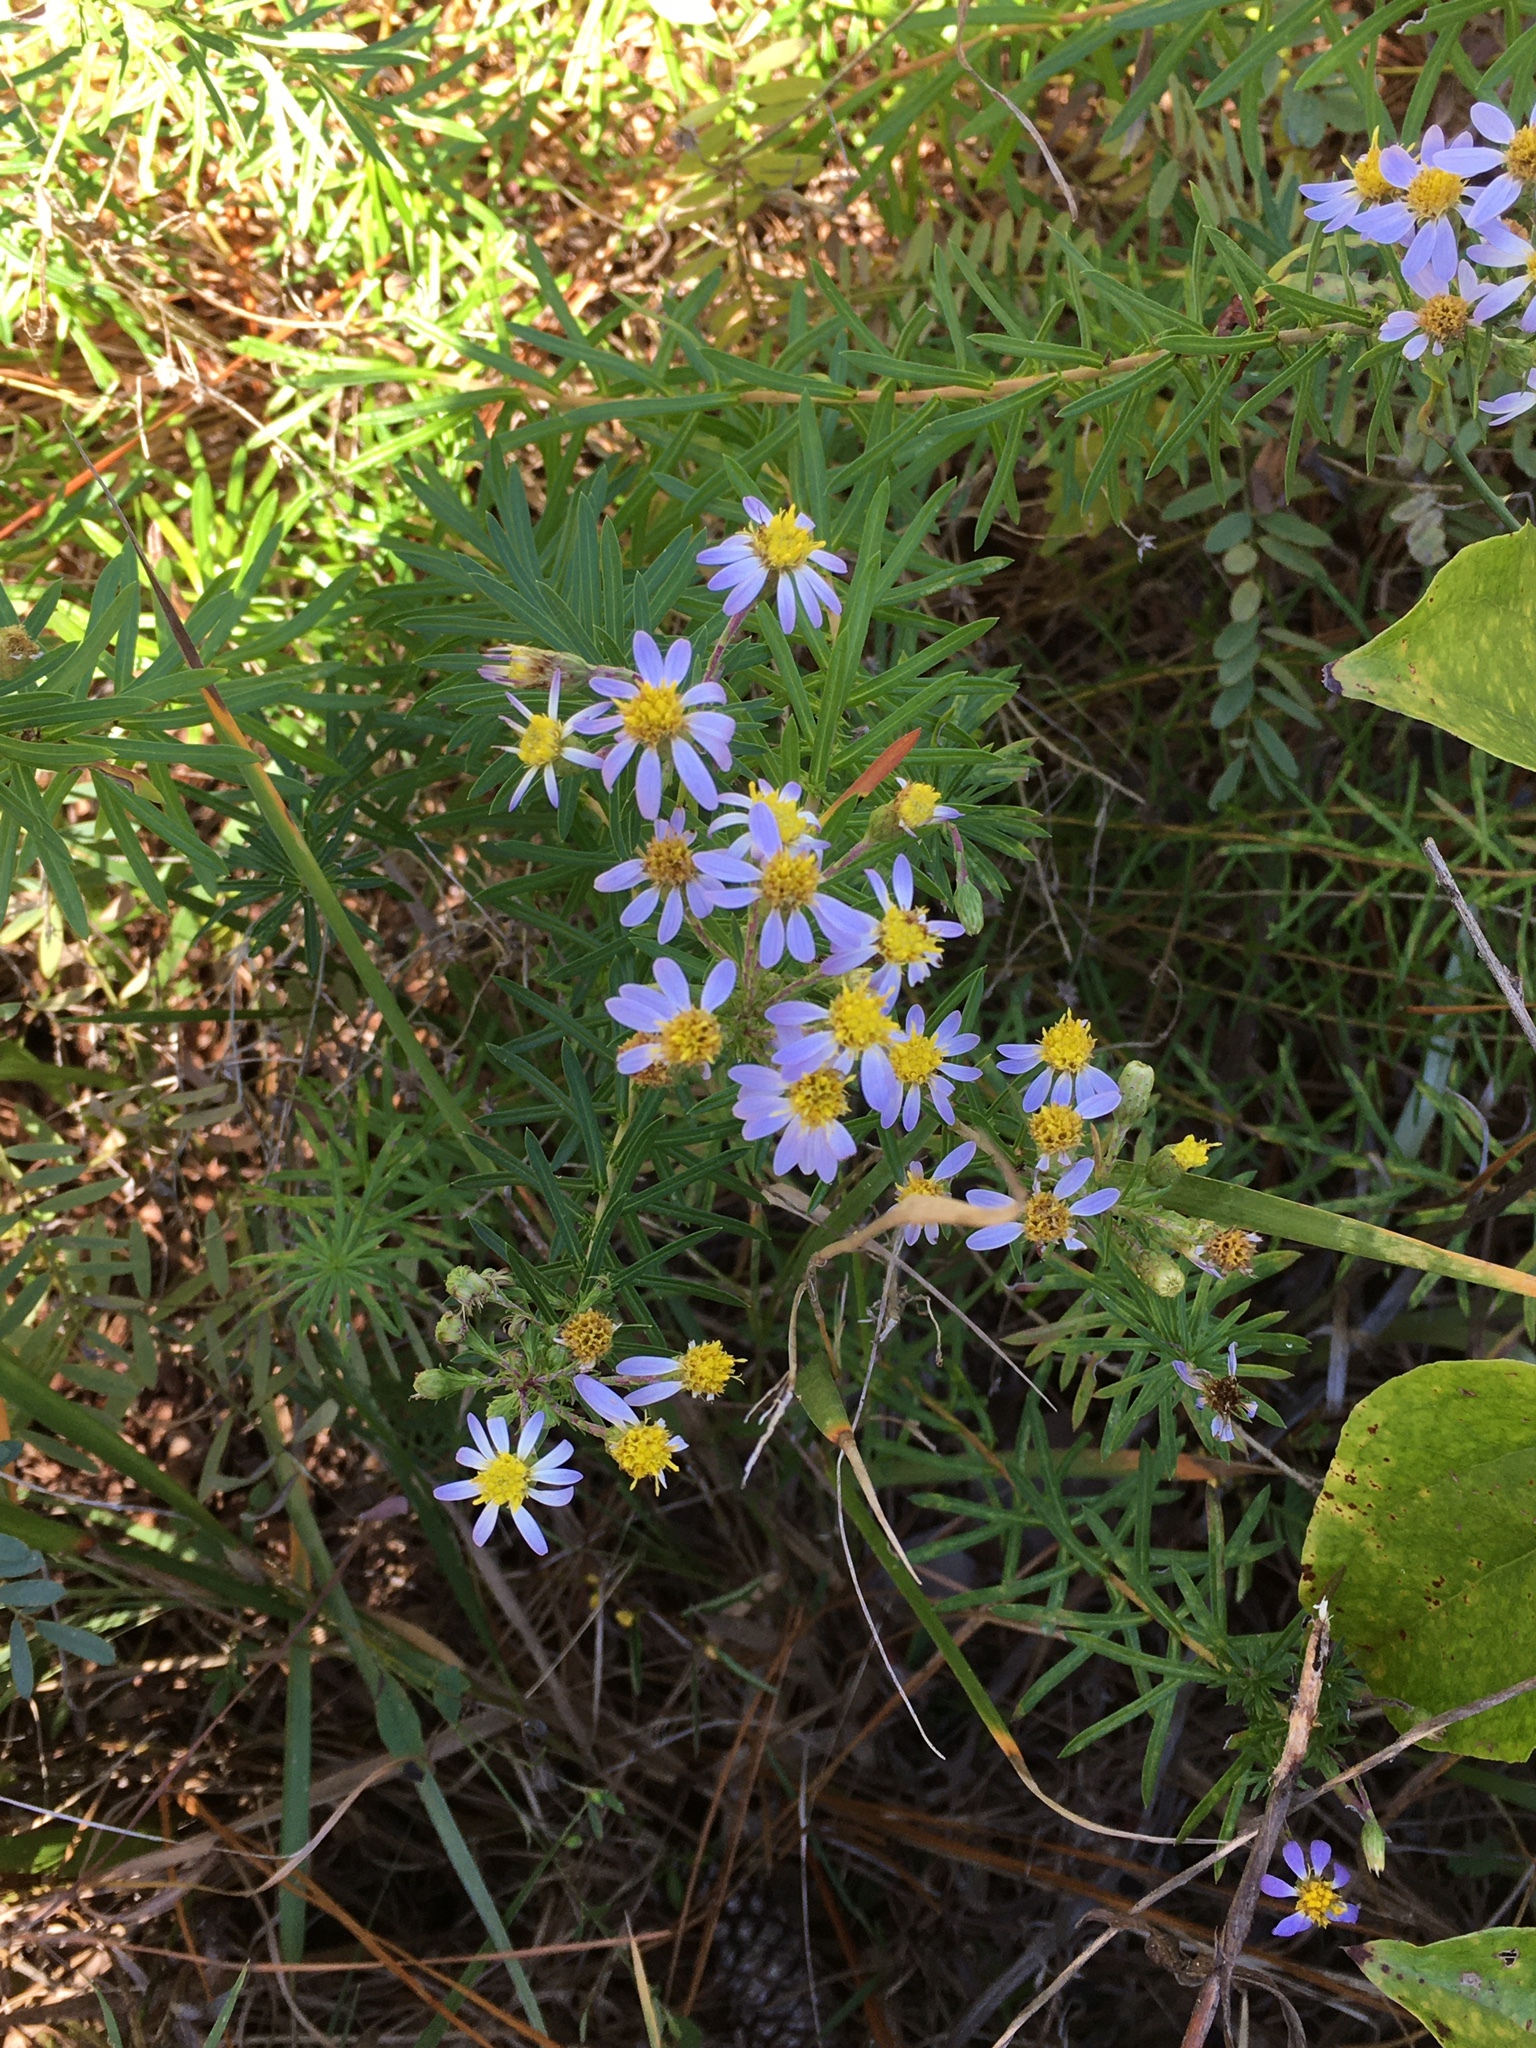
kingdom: Plantae
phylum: Tracheophyta
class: Magnoliopsida
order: Asterales
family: Asteraceae
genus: Ionactis
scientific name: Ionactis linariifolia
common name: Flax-leaf aster
